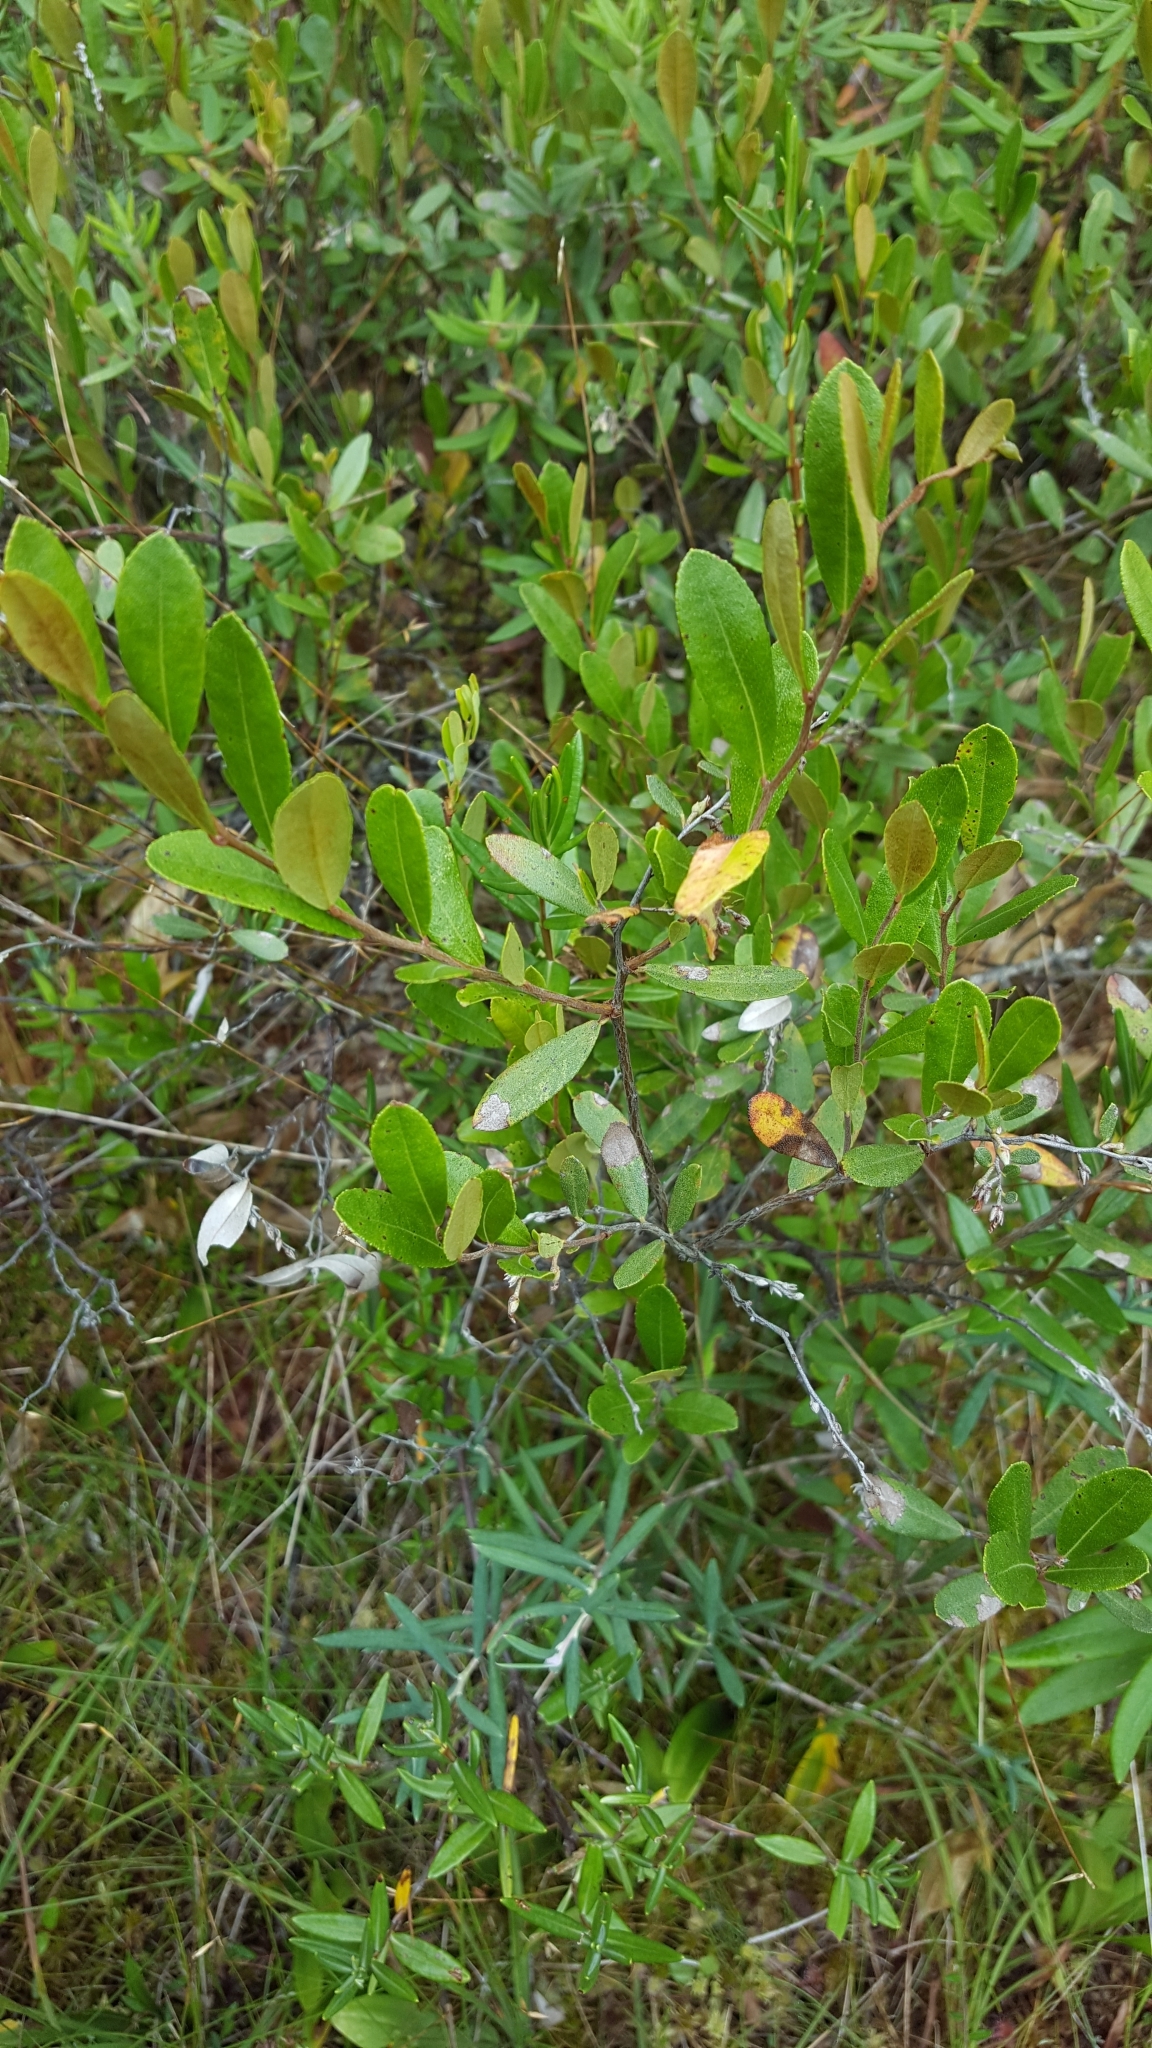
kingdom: Plantae
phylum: Tracheophyta
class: Magnoliopsida
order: Ericales
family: Ericaceae
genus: Chamaedaphne
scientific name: Chamaedaphne calyculata
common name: Leatherleaf
